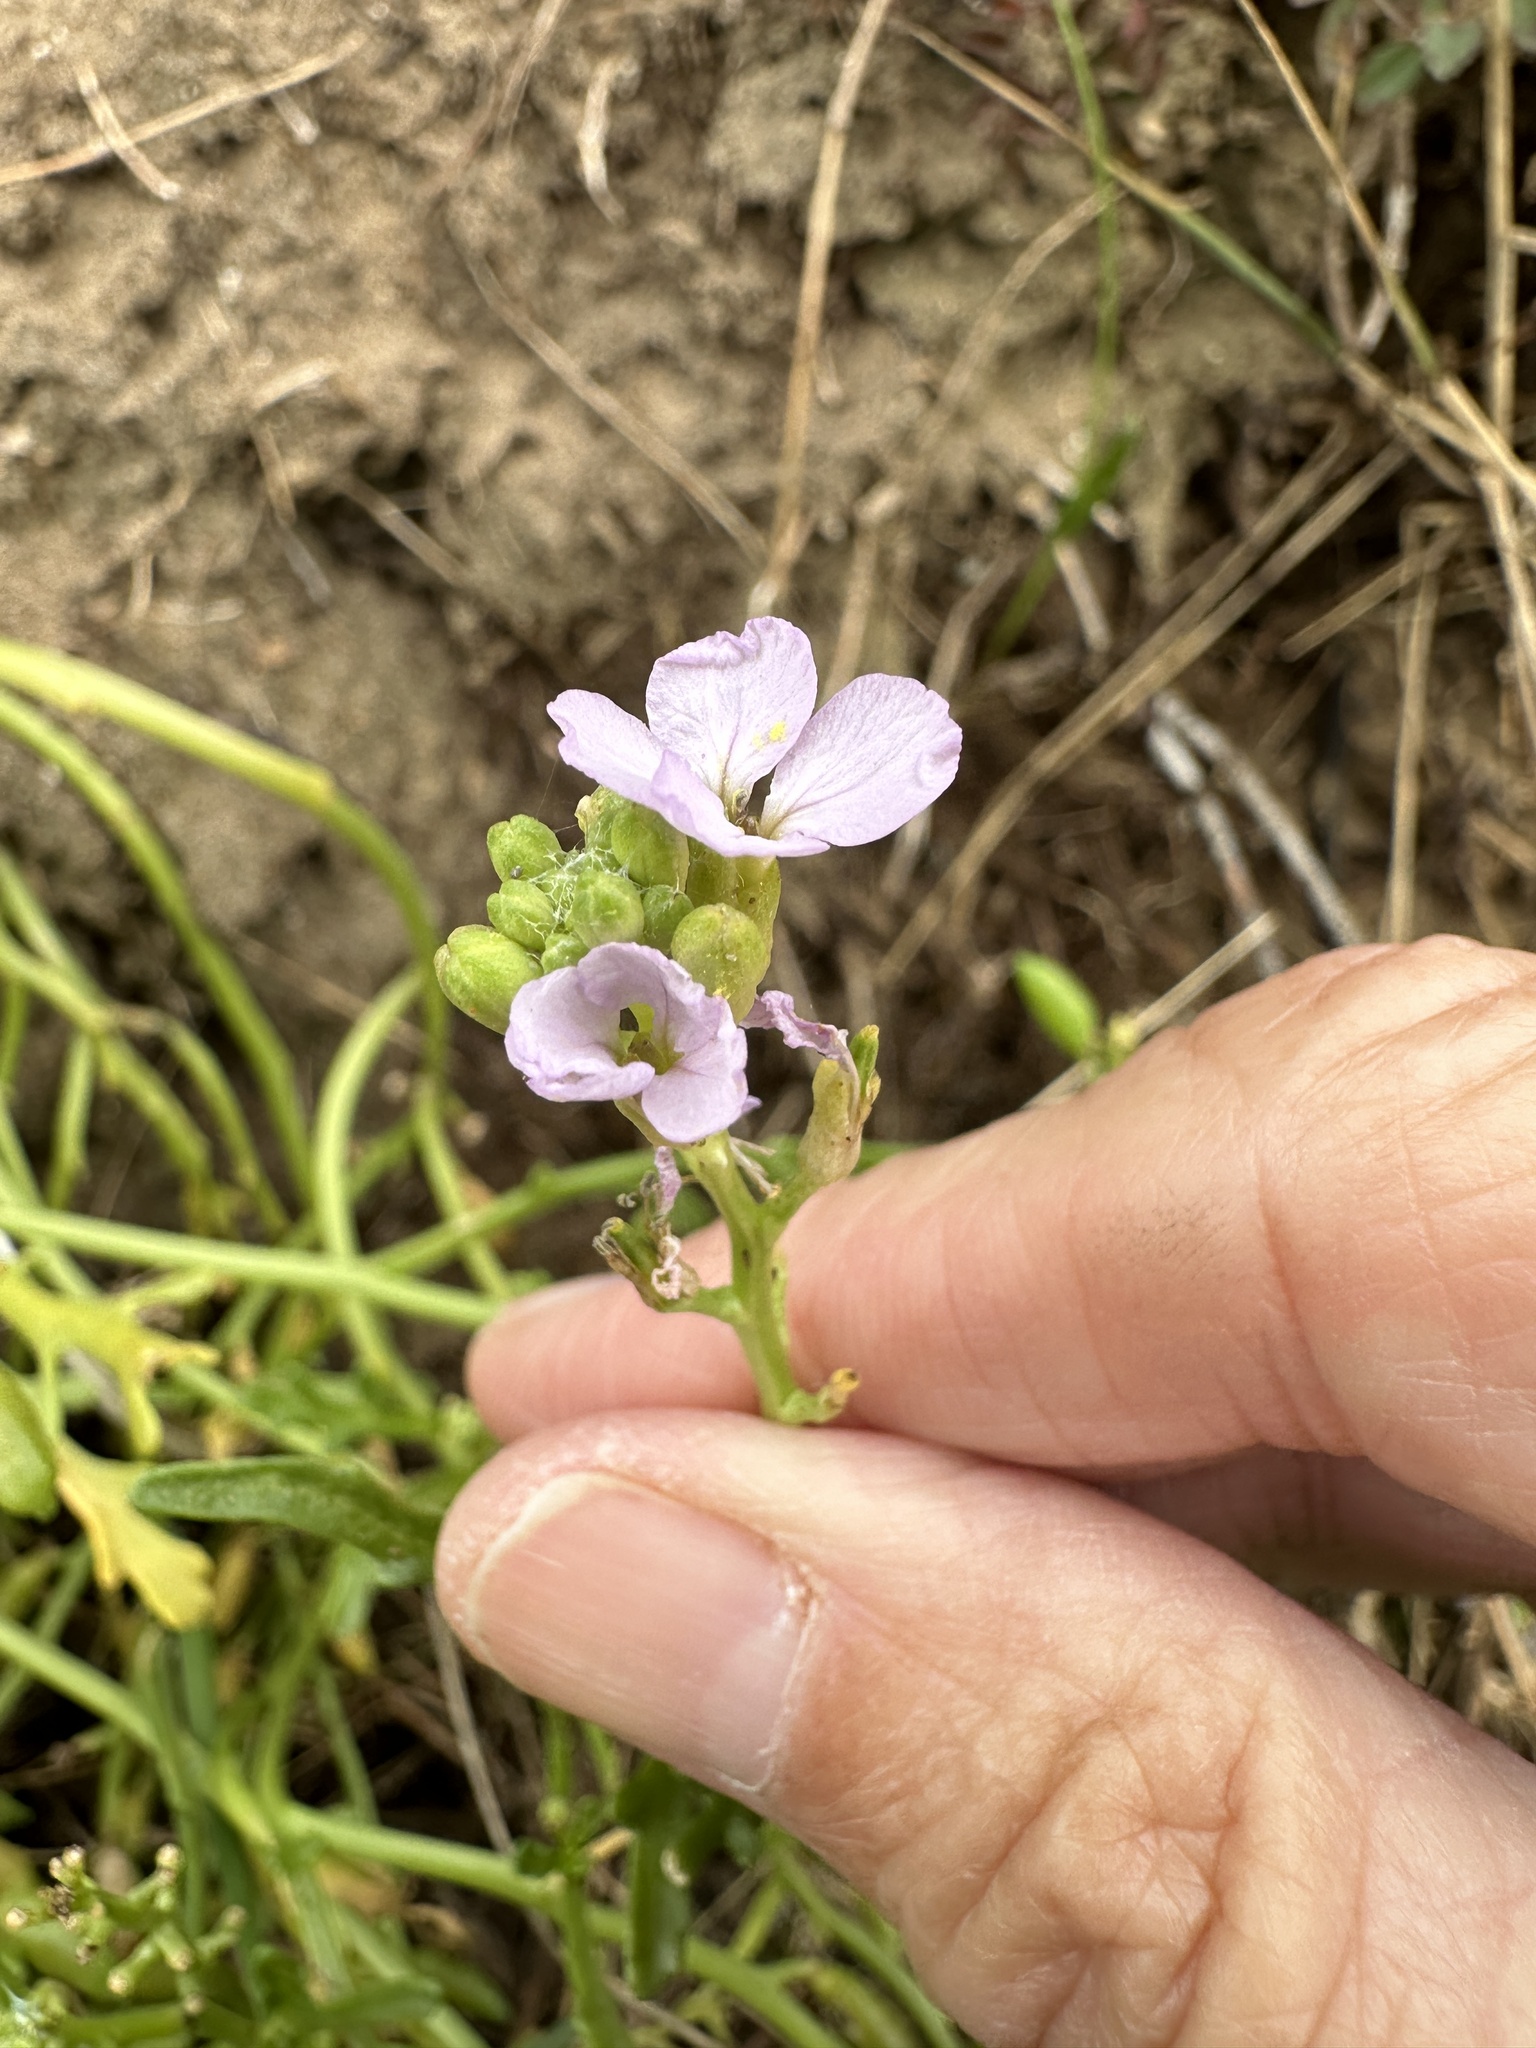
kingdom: Plantae
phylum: Tracheophyta
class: Magnoliopsida
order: Brassicales
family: Brassicaceae
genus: Cakile
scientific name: Cakile maritima
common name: Sea rocket
